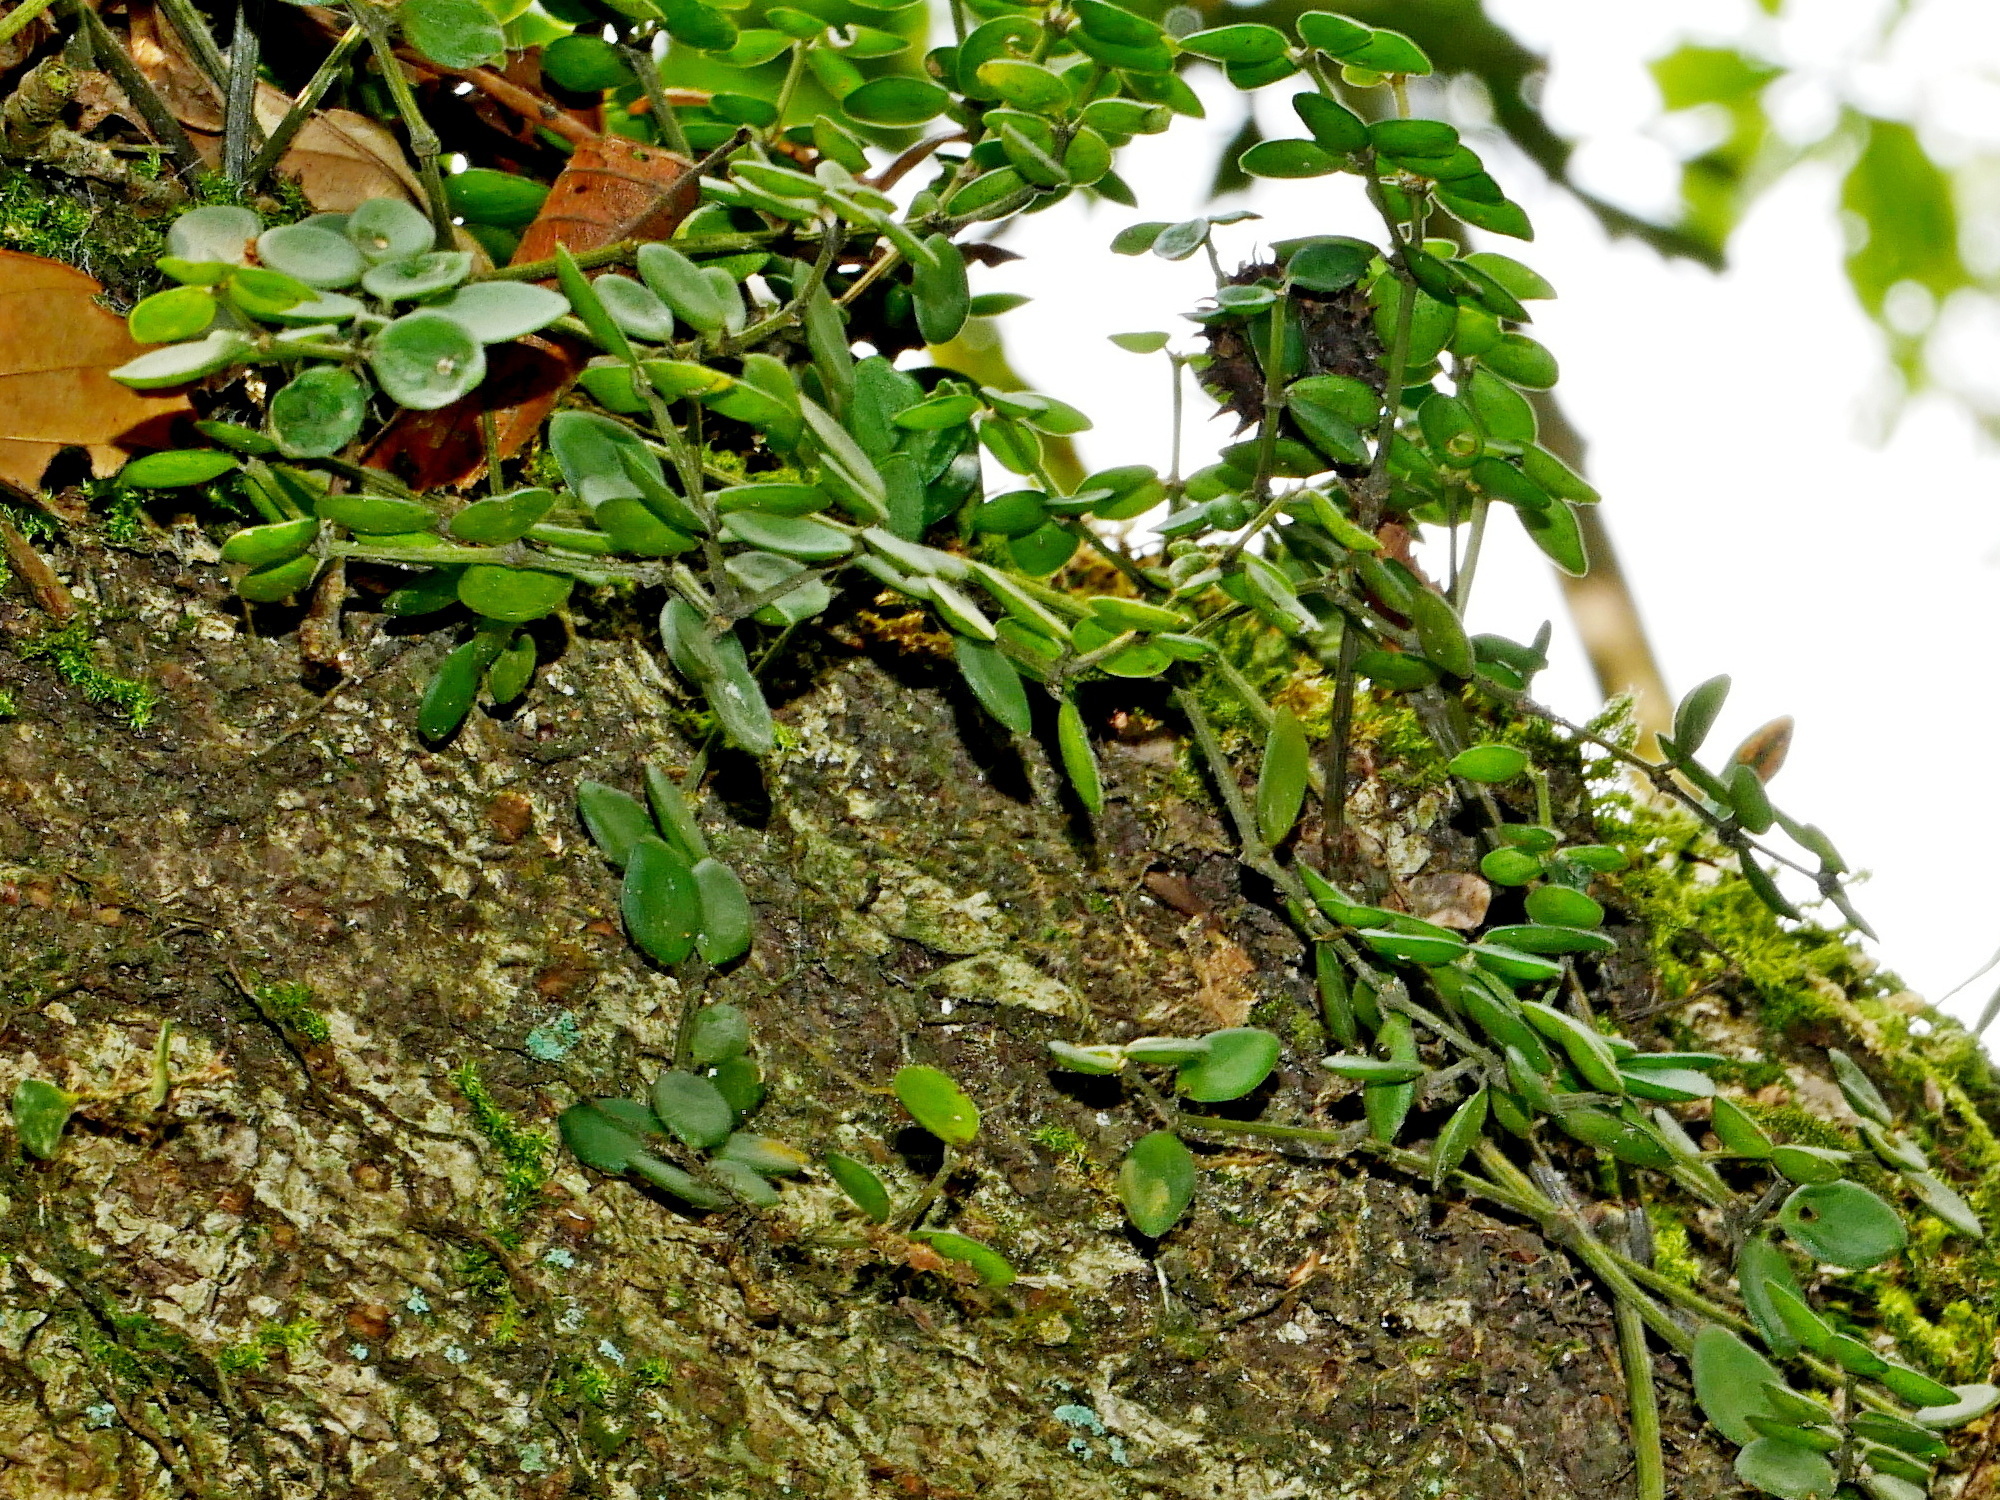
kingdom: Plantae
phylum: Tracheophyta
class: Magnoliopsida
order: Piperales
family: Piperaceae
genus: Peperomia
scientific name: Peperomia tetraphylla
